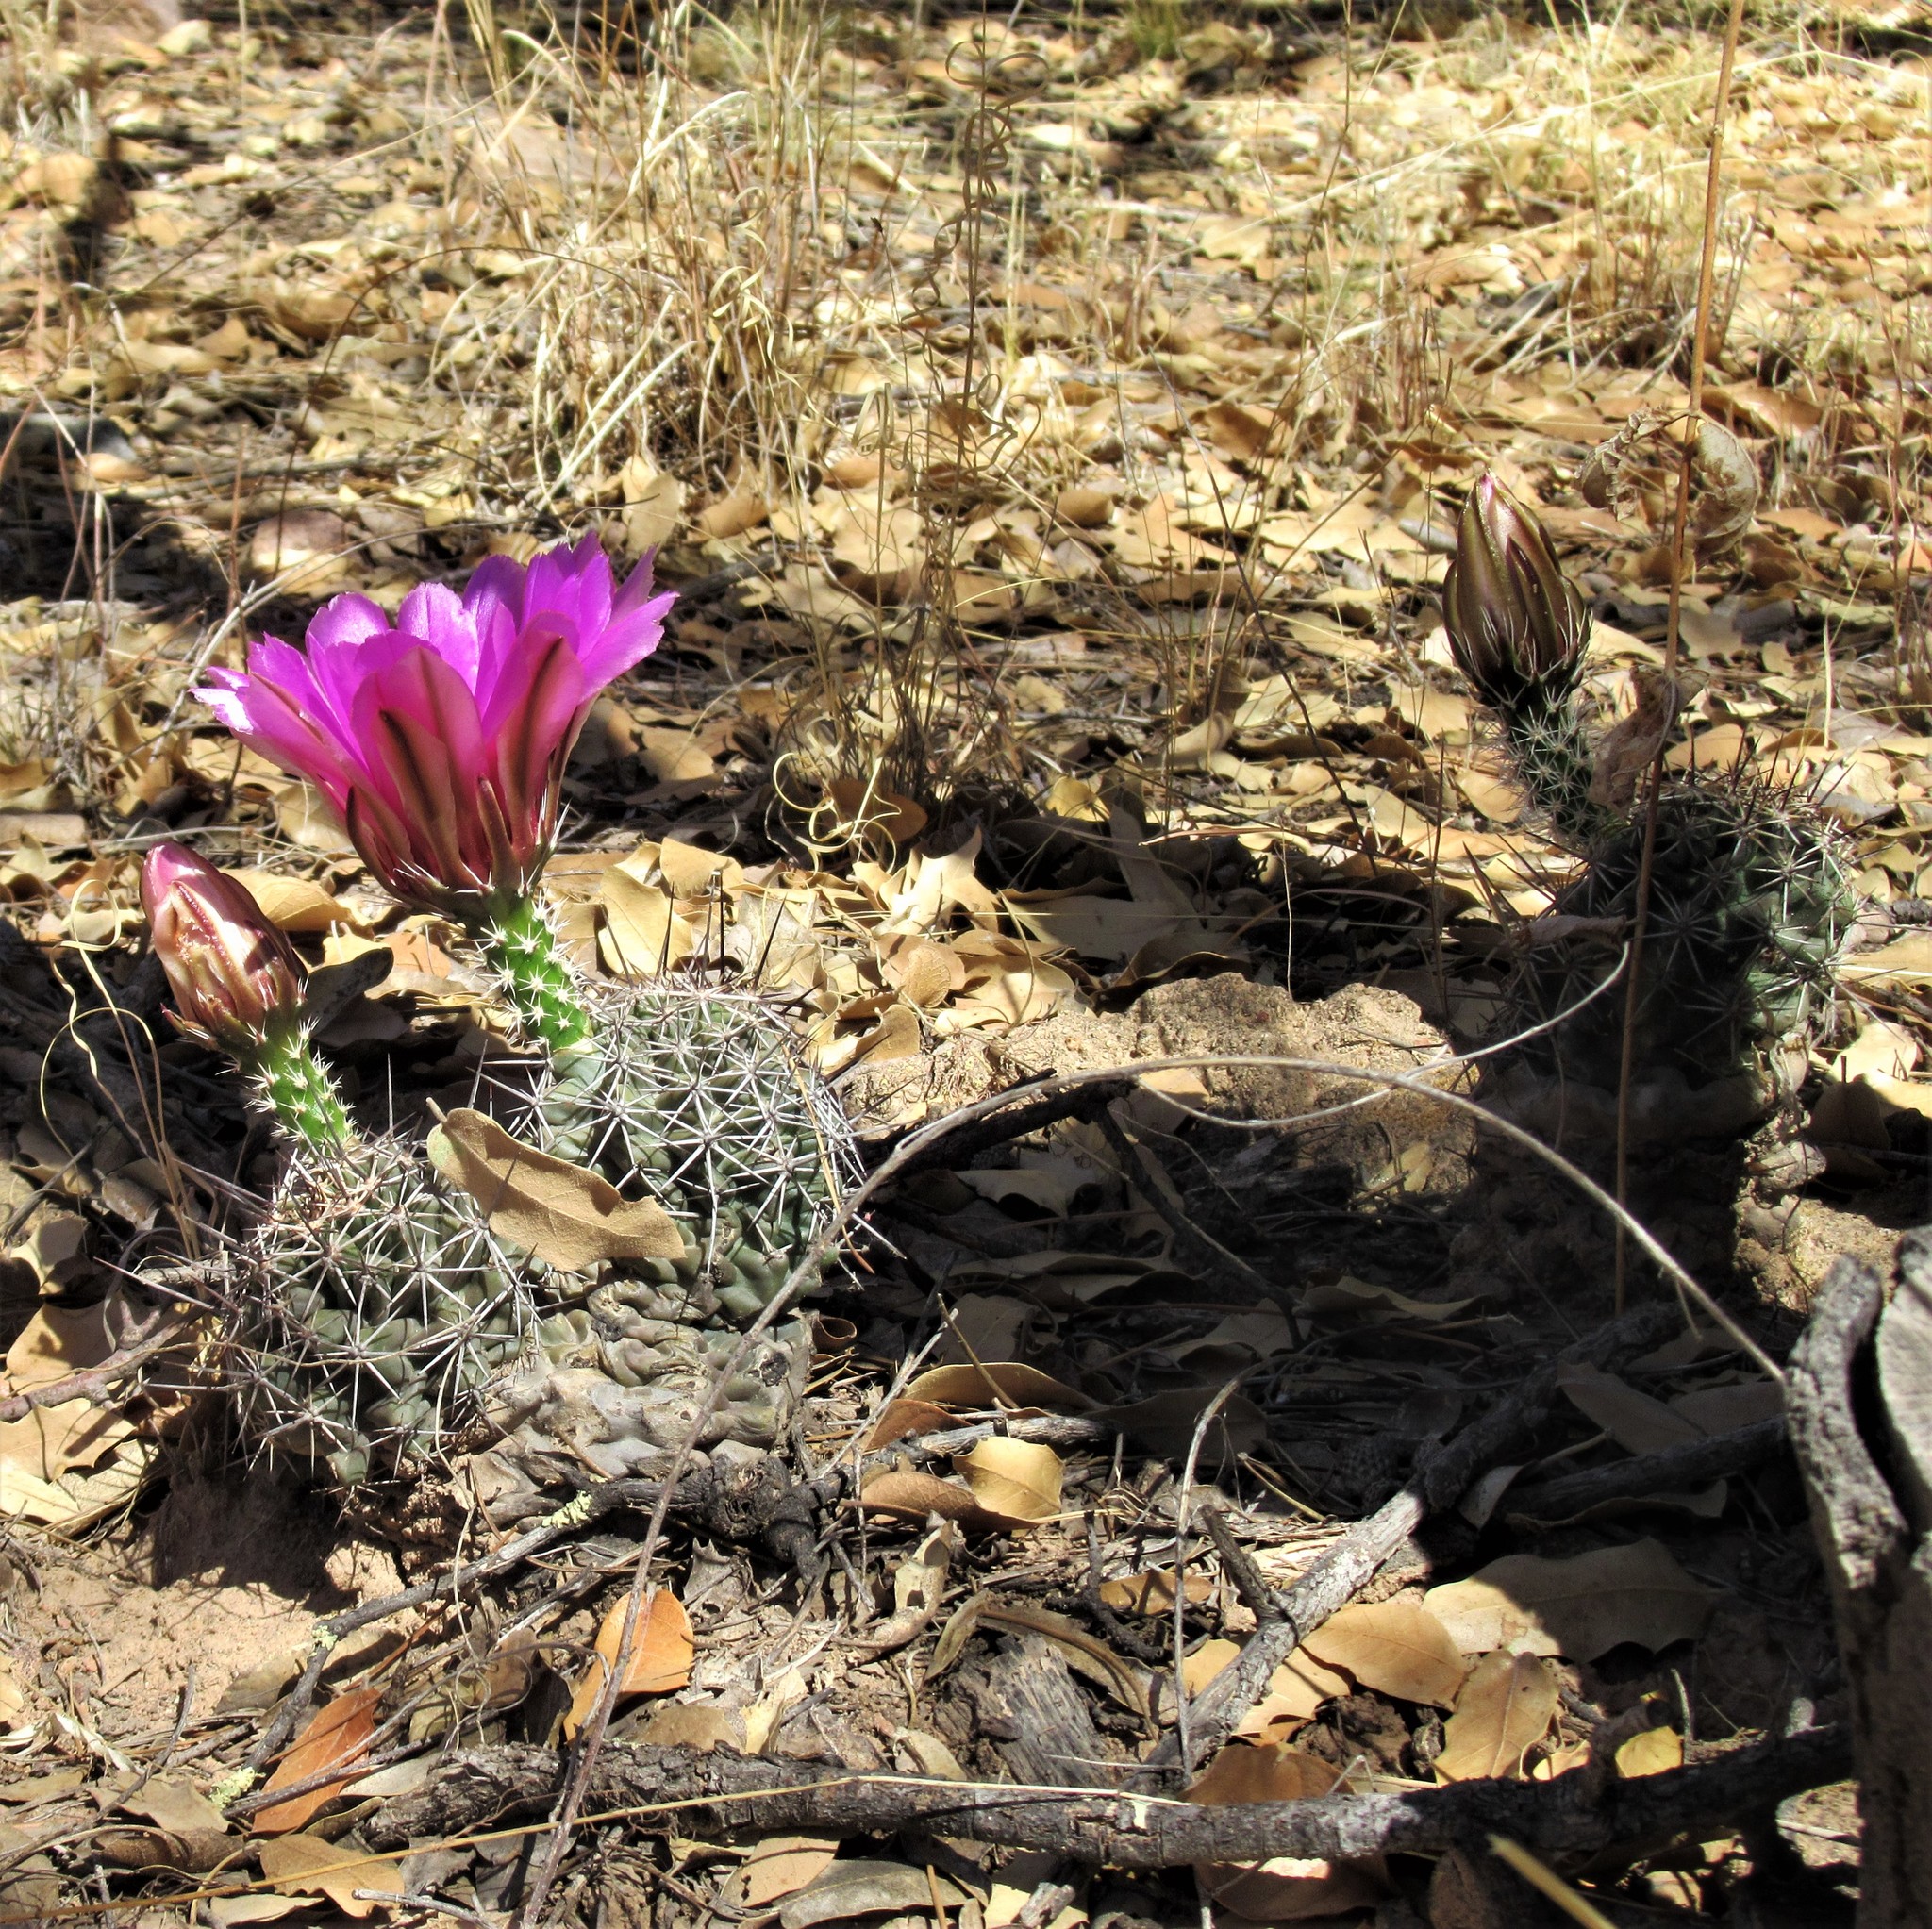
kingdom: Plantae
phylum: Tracheophyta
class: Magnoliopsida
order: Caryophyllales
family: Cactaceae
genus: Echinocereus
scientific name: Echinocereus fendleri
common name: Fendler's hedgehog cactus
